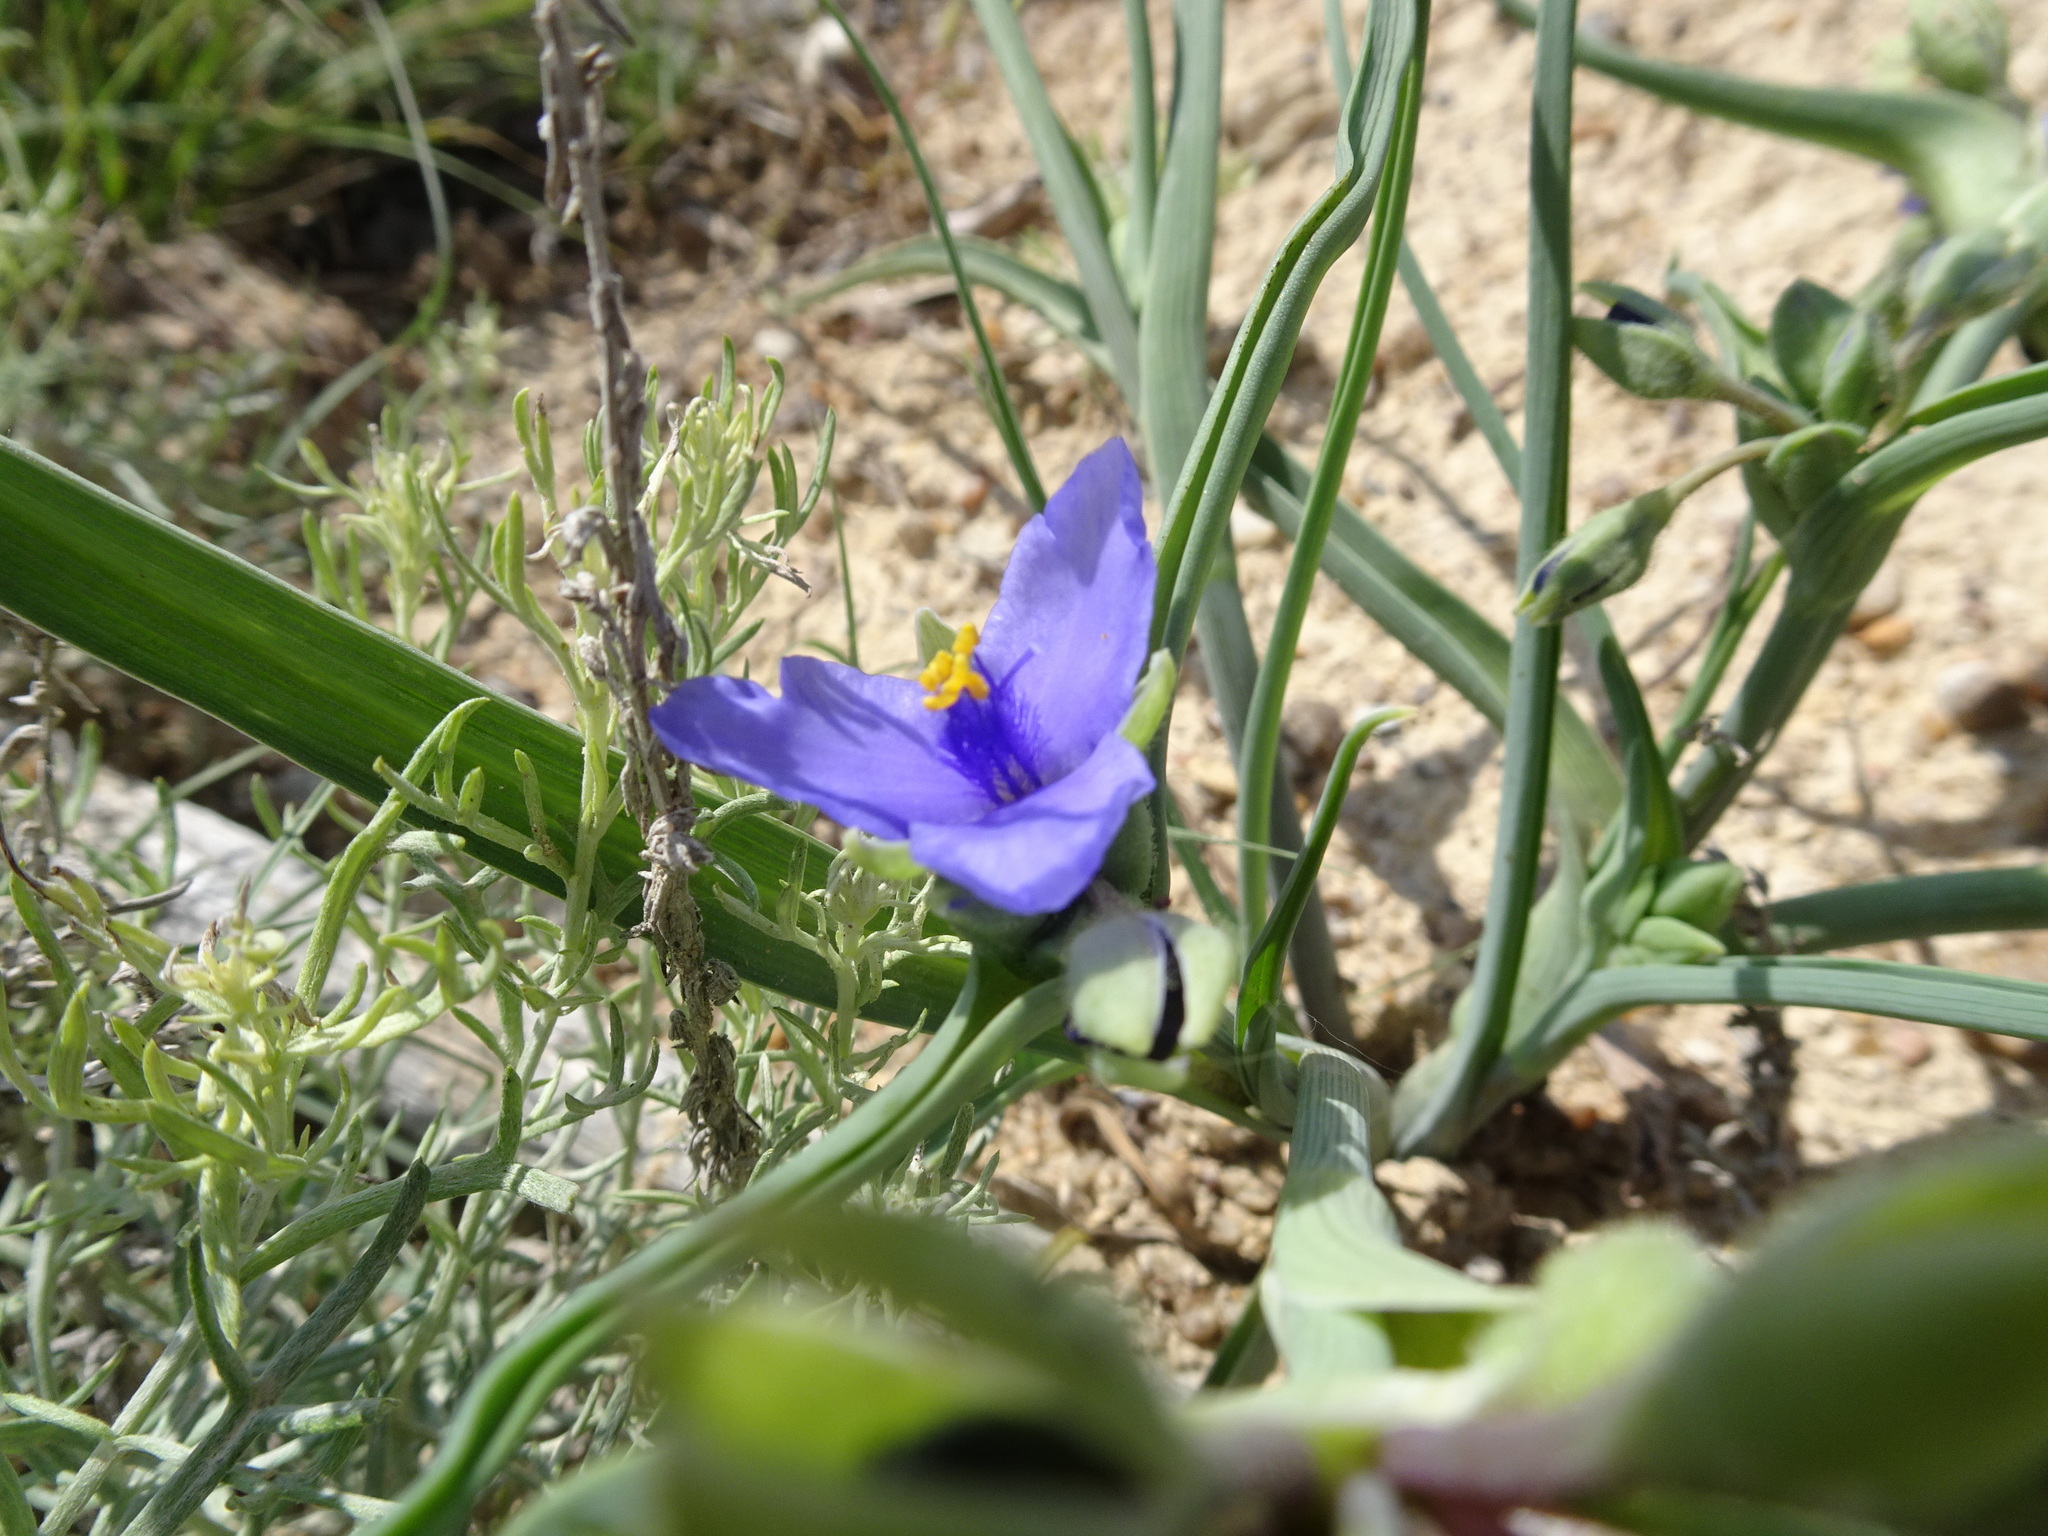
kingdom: Plantae
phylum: Tracheophyta
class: Liliopsida
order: Commelinales
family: Commelinaceae
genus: Tradescantia
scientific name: Tradescantia occidentalis
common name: Prairie spiderwort
